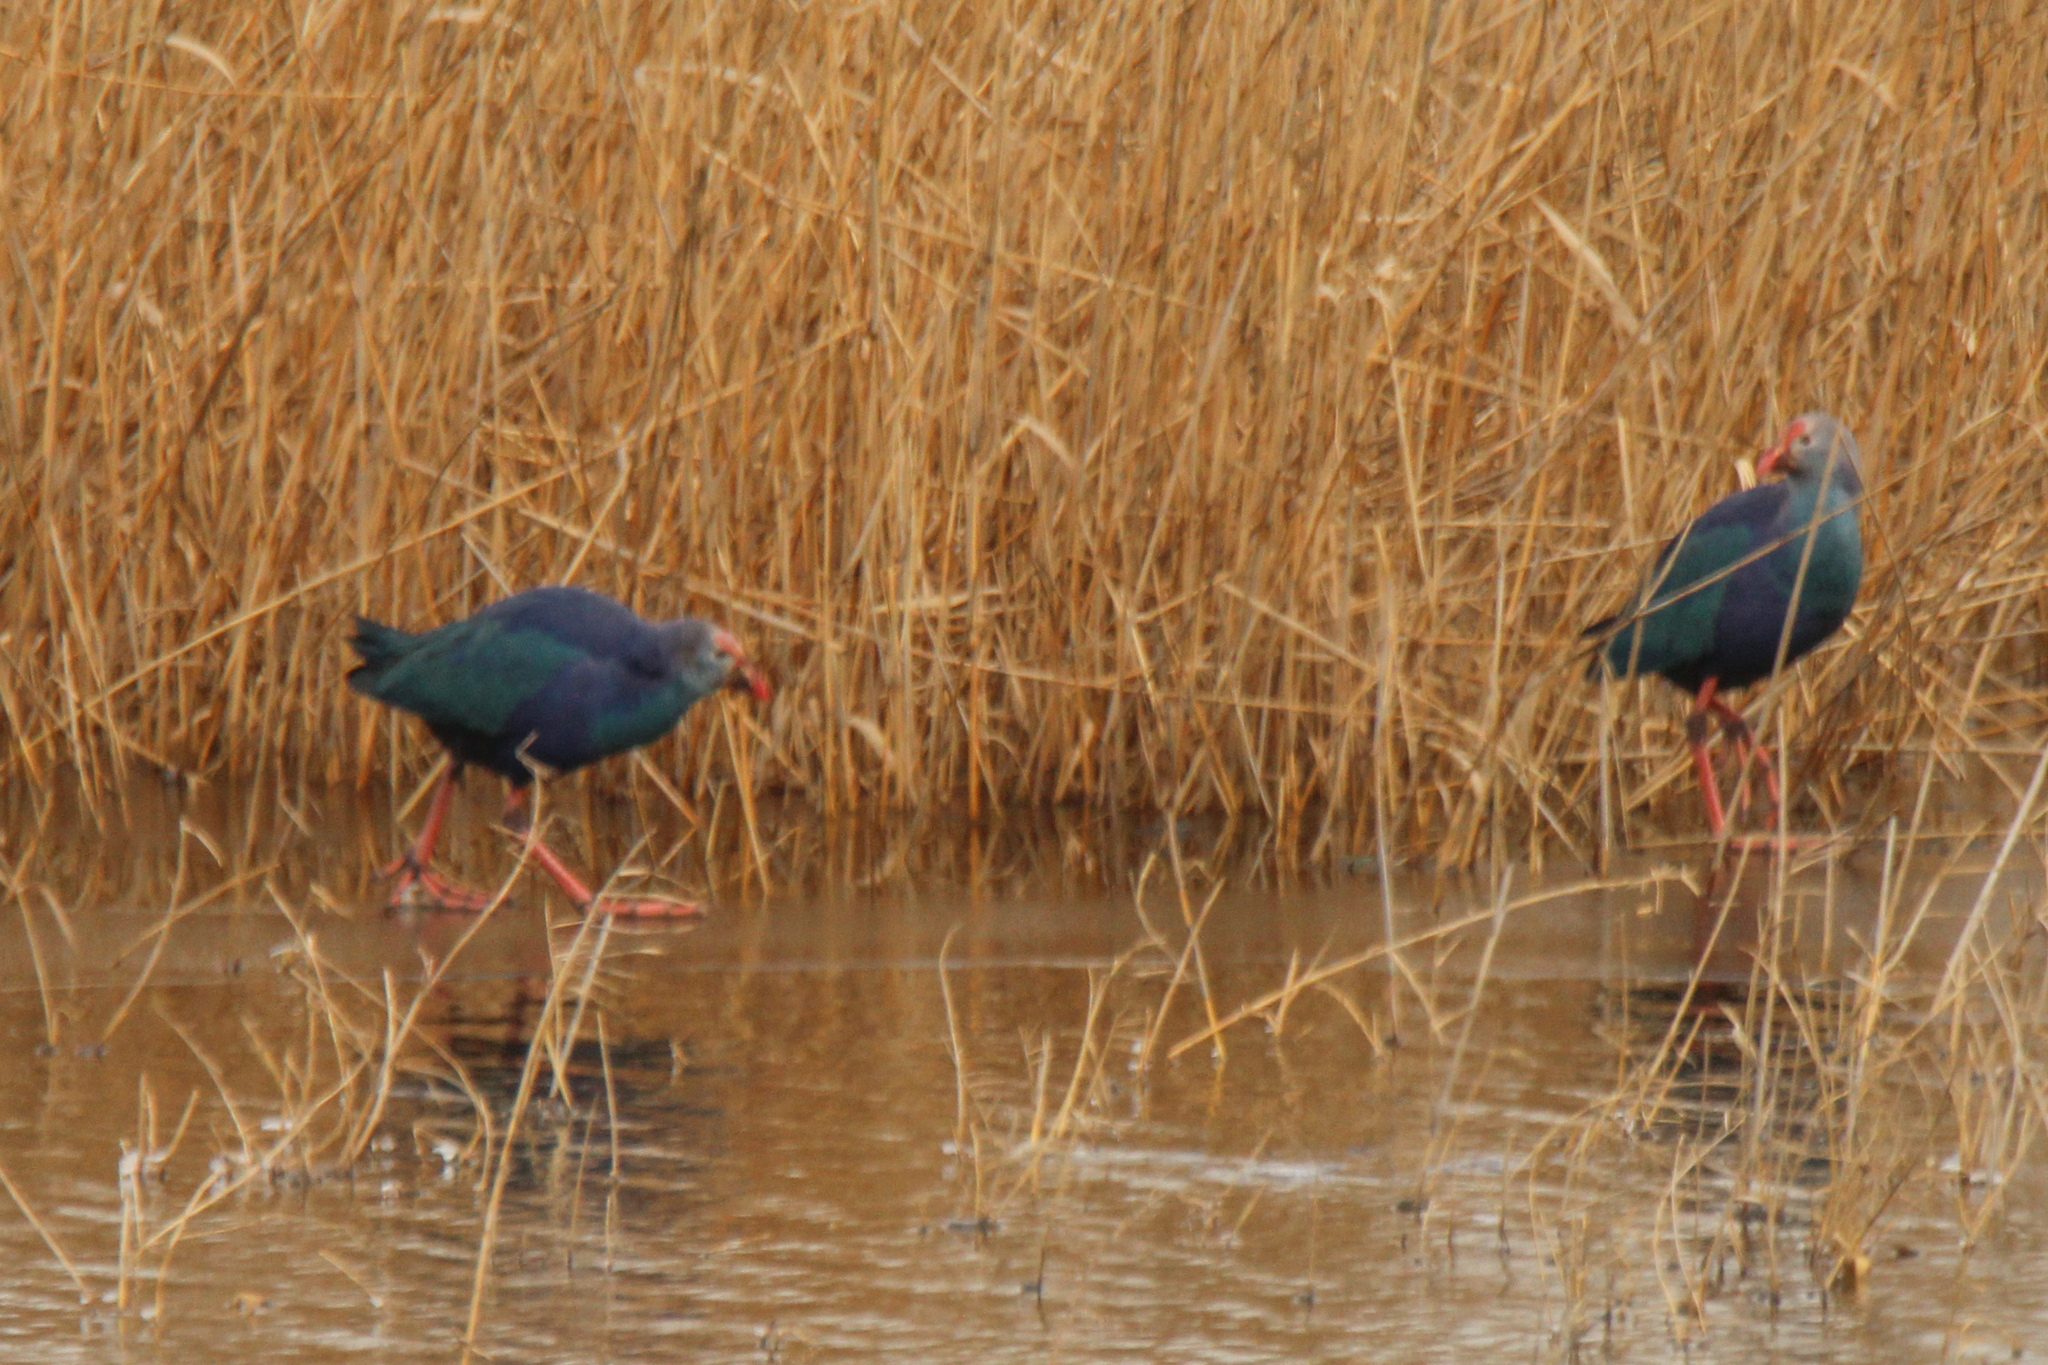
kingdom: Animalia
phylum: Chordata
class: Aves
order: Gruiformes
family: Rallidae
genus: Porphyrio
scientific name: Porphyrio porphyrio
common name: Purple swamphen
